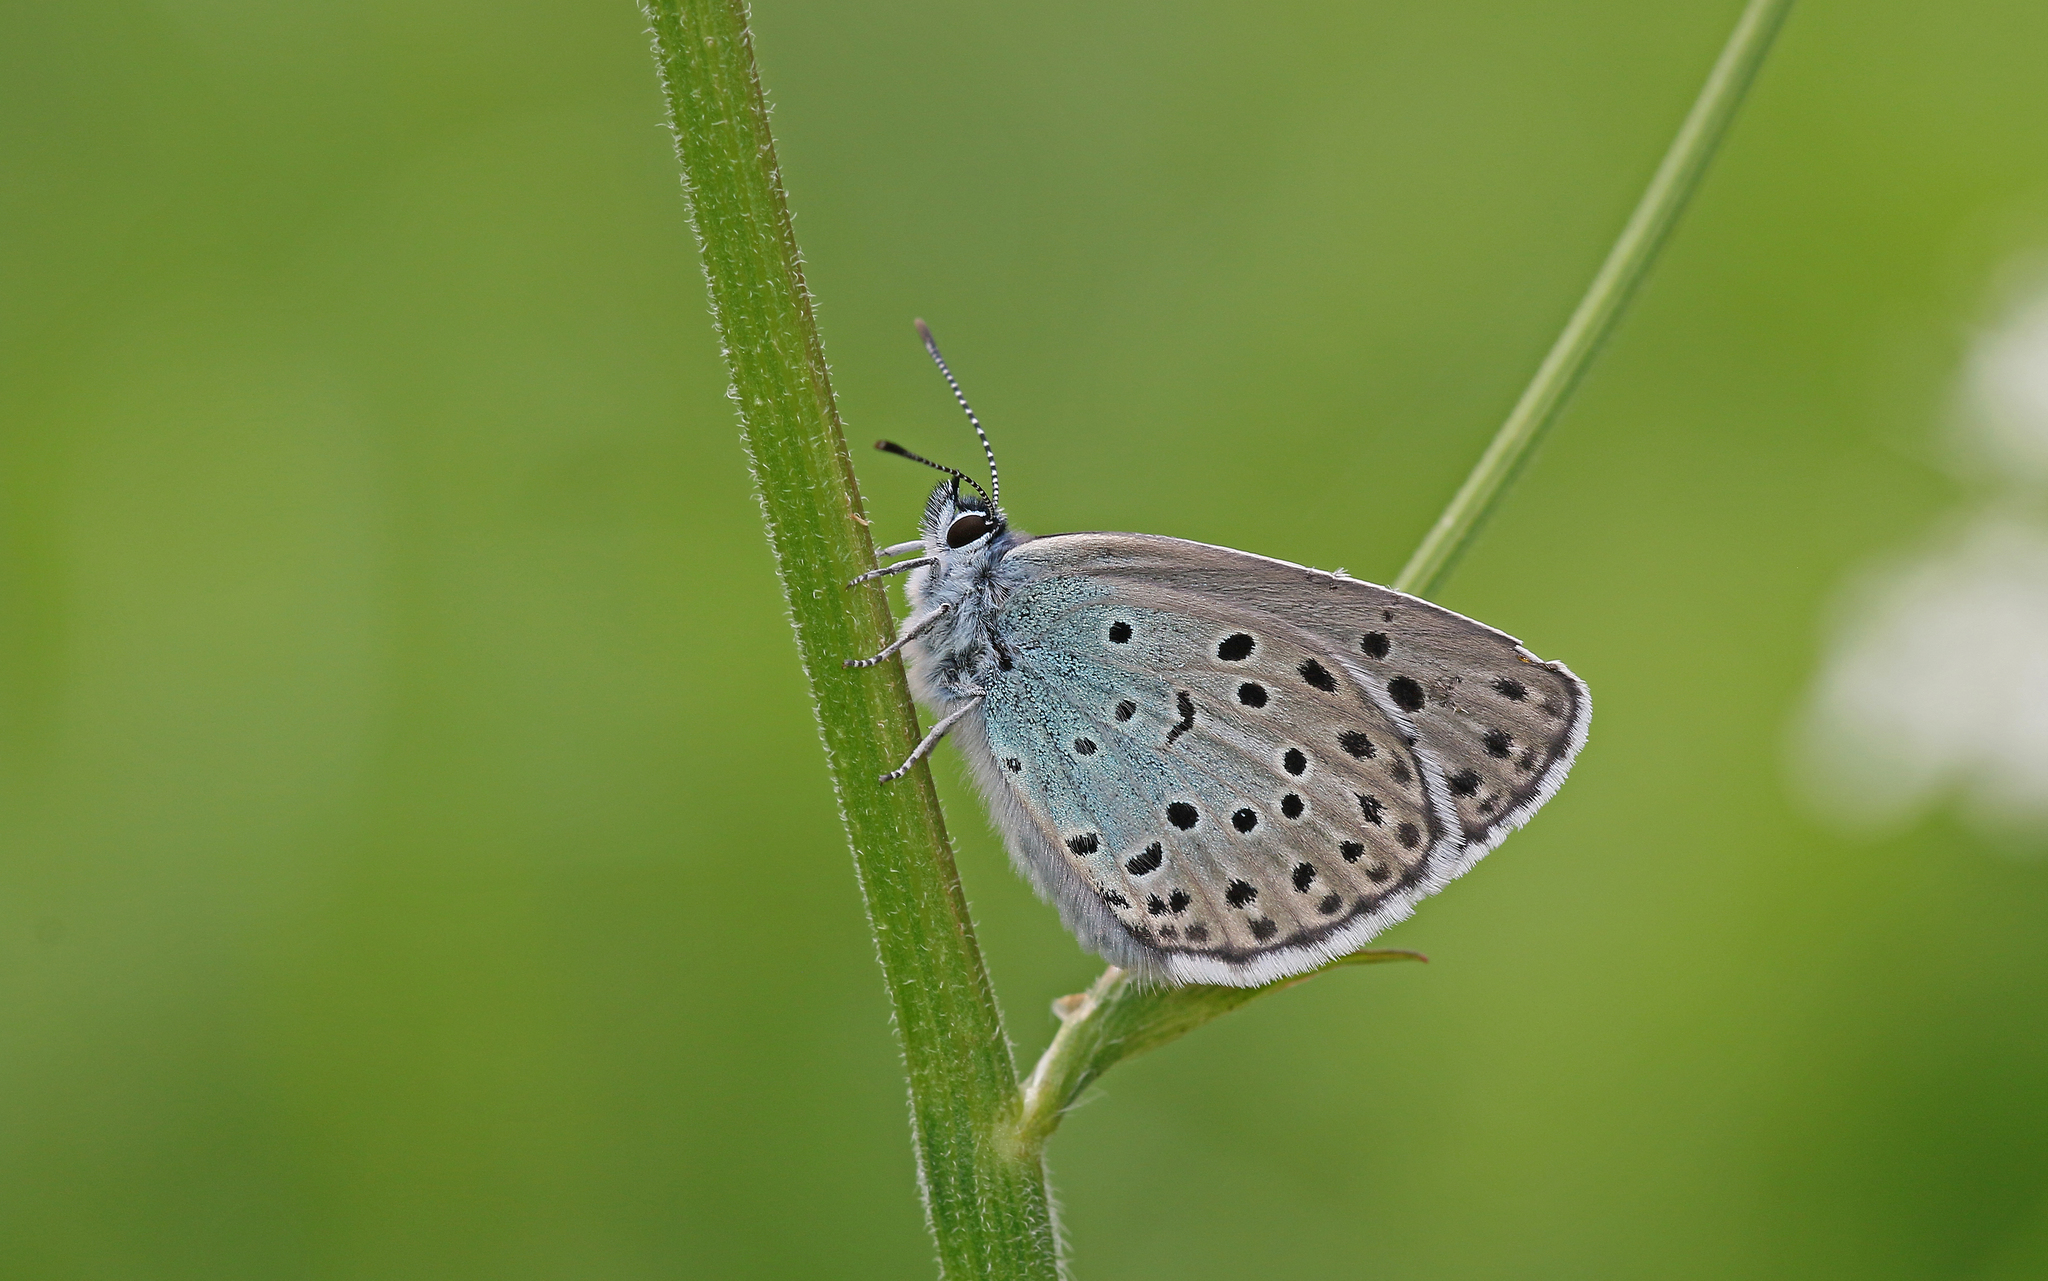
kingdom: Animalia
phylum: Arthropoda
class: Insecta
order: Lepidoptera
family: Lycaenidae
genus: Maculinea
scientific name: Maculinea arion
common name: Large blue
